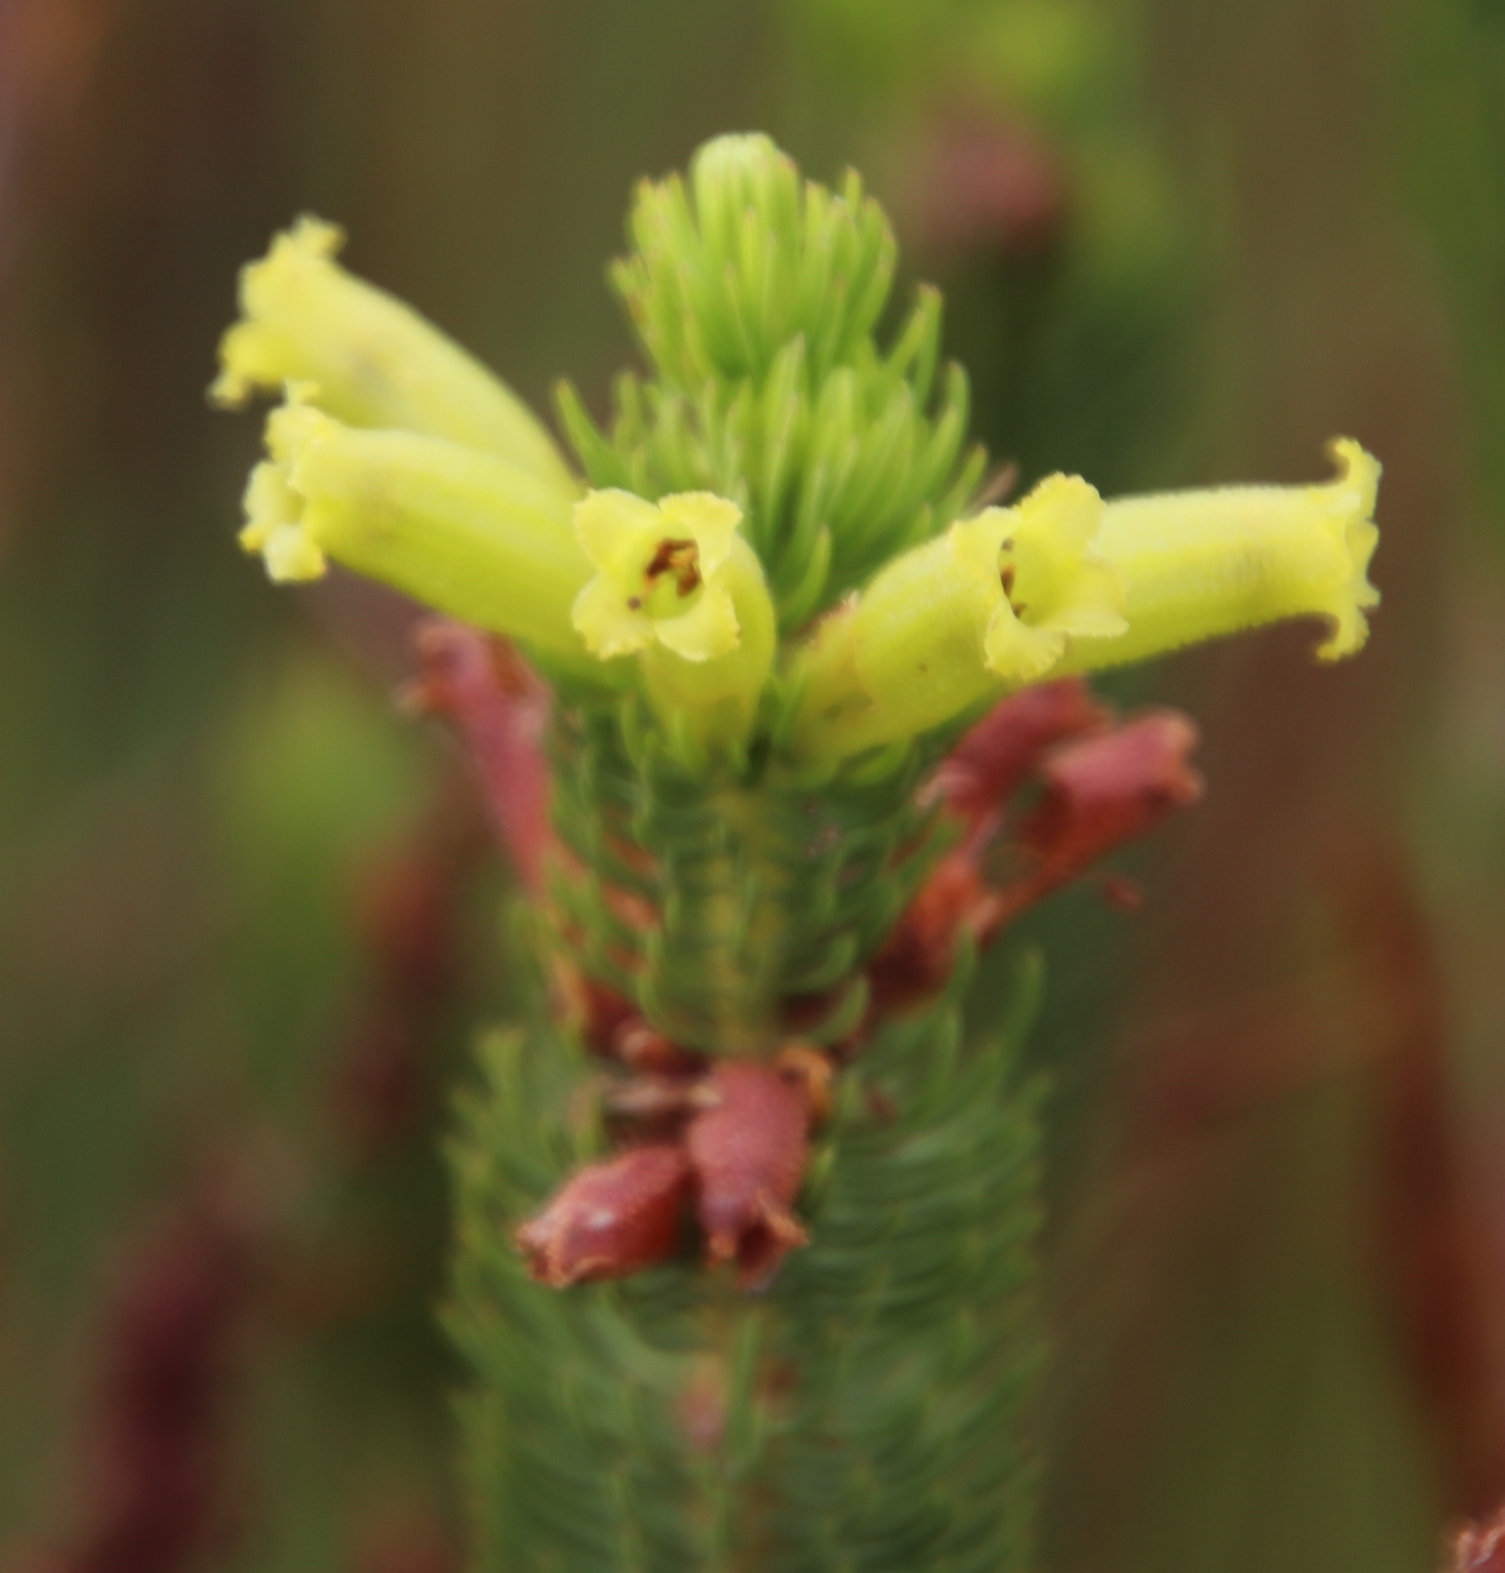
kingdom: Plantae
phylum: Tracheophyta
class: Magnoliopsida
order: Ericales
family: Ericaceae
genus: Erica
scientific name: Erica viscaria
